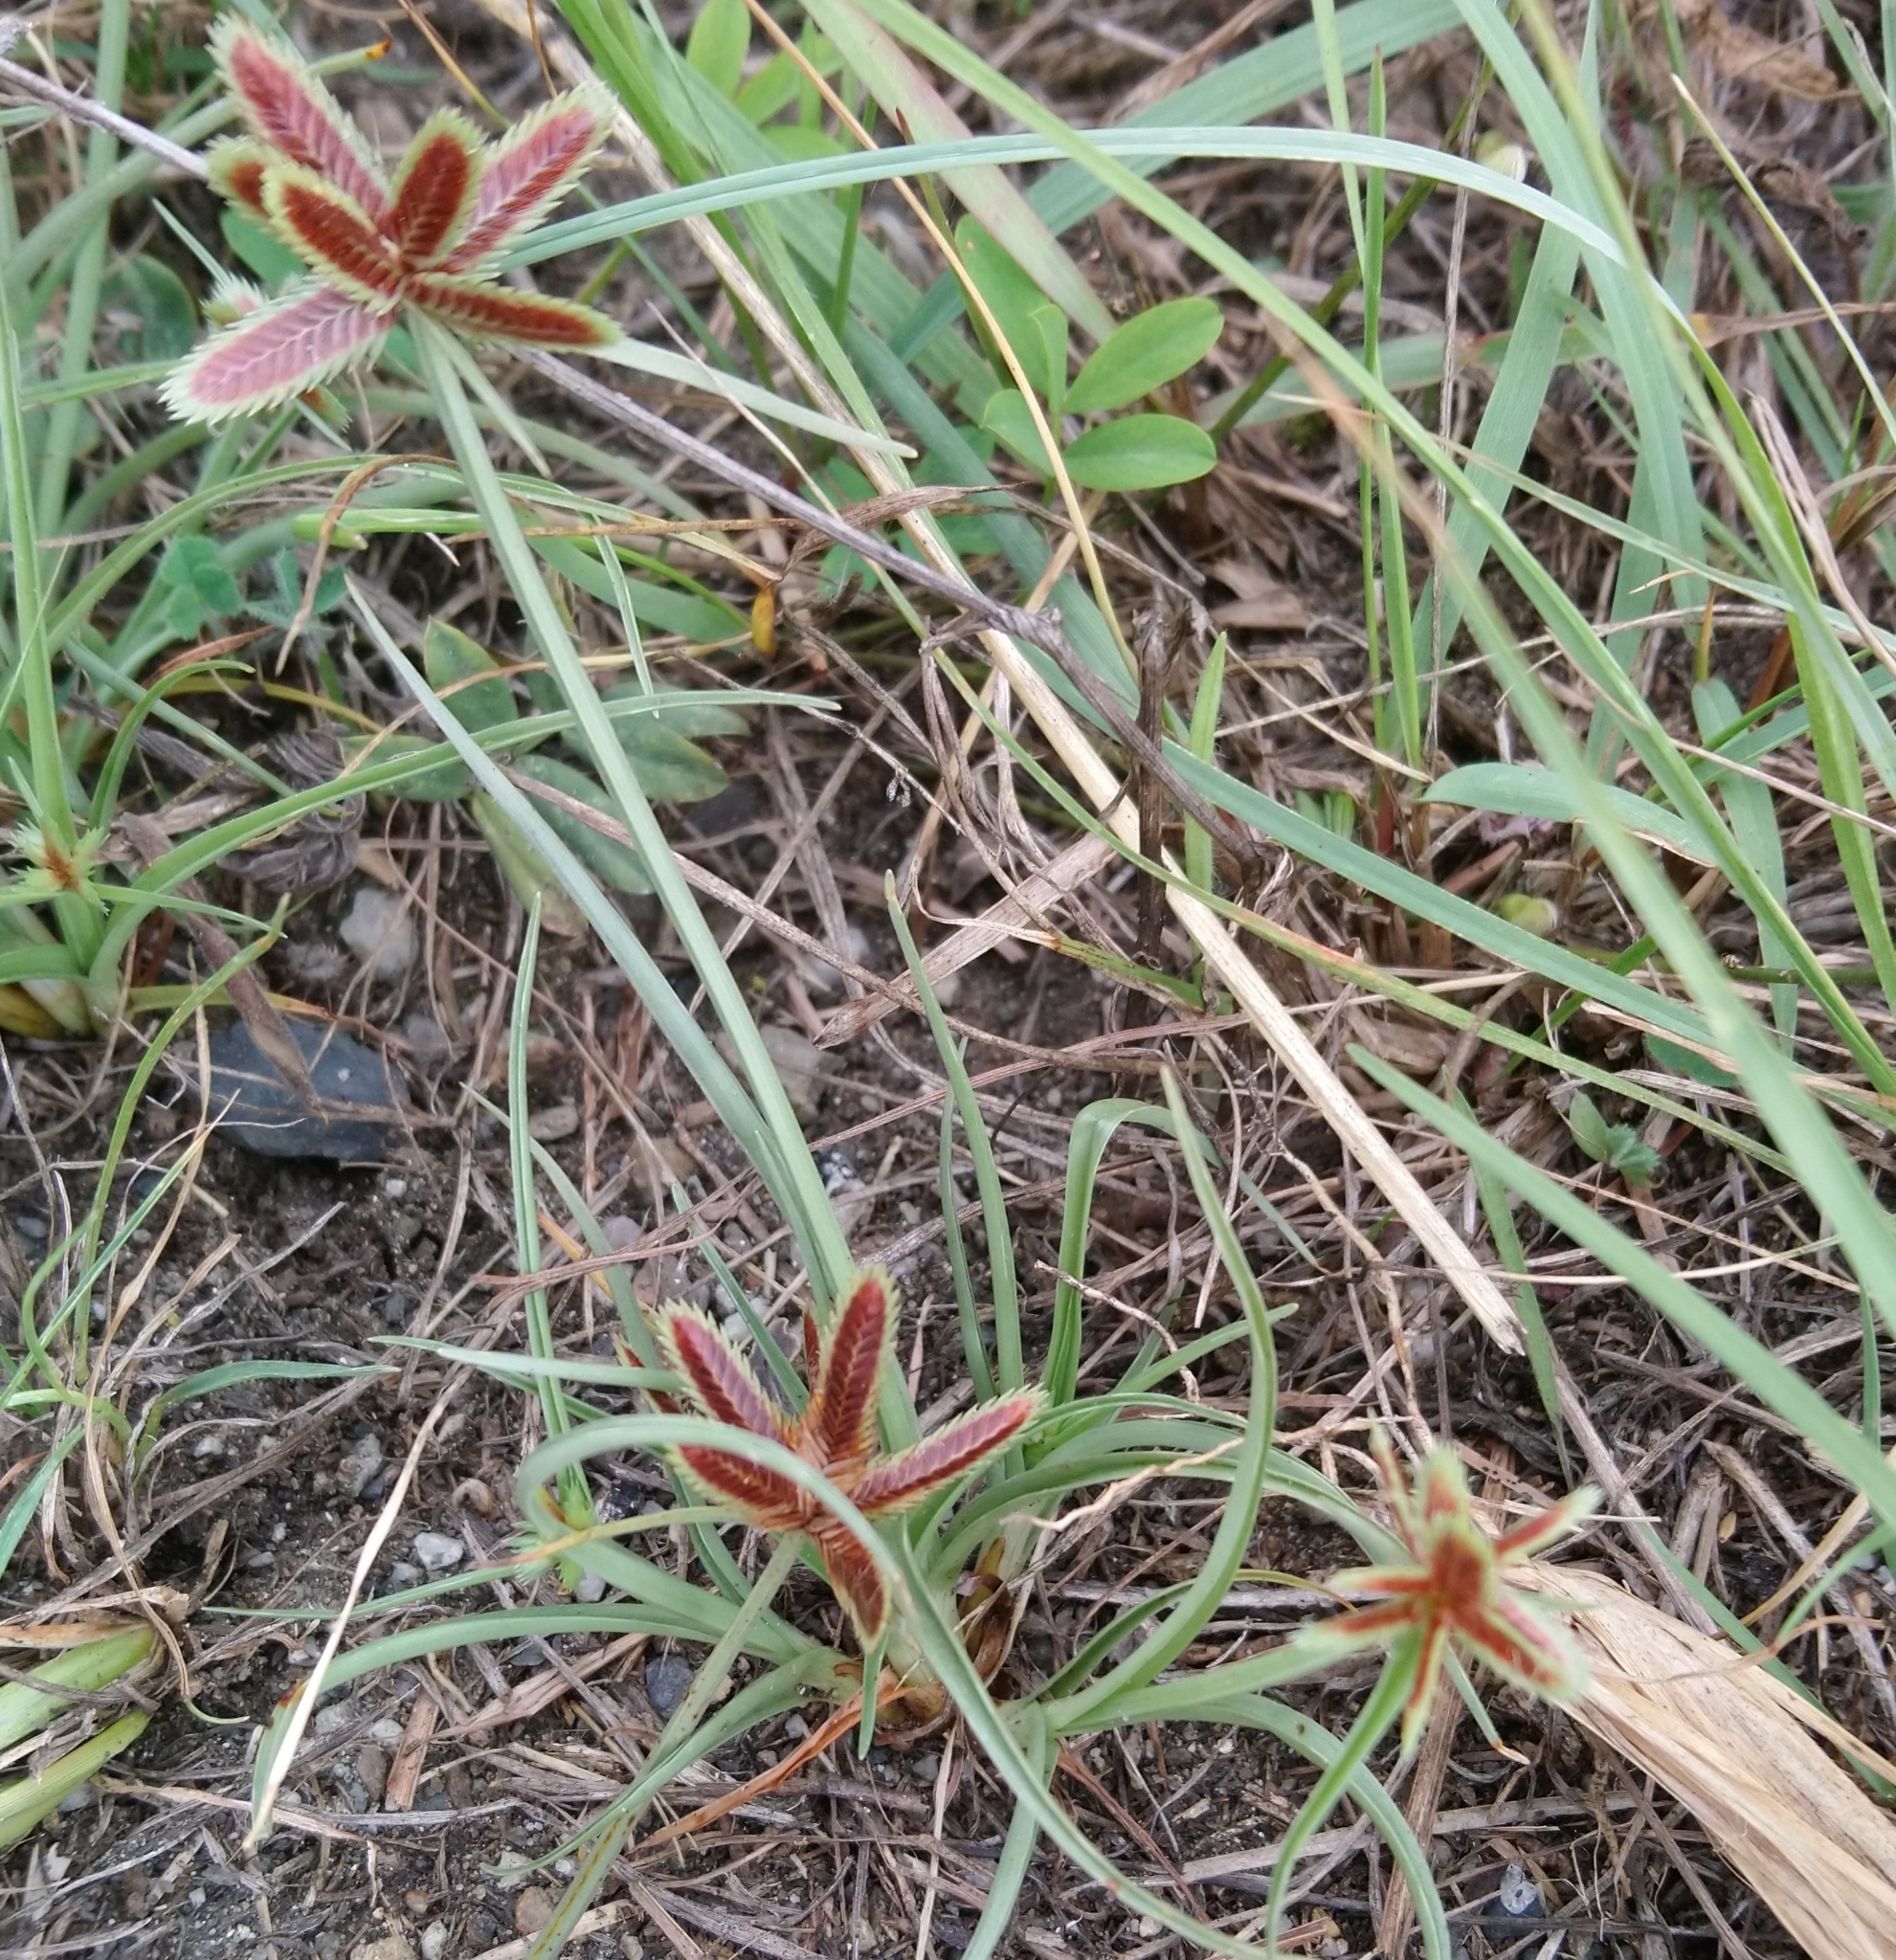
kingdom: Plantae
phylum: Tracheophyta
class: Liliopsida
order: Poales
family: Cyperaceae
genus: Cyperus
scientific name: Cyperus rubicundus
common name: Coco-grass
